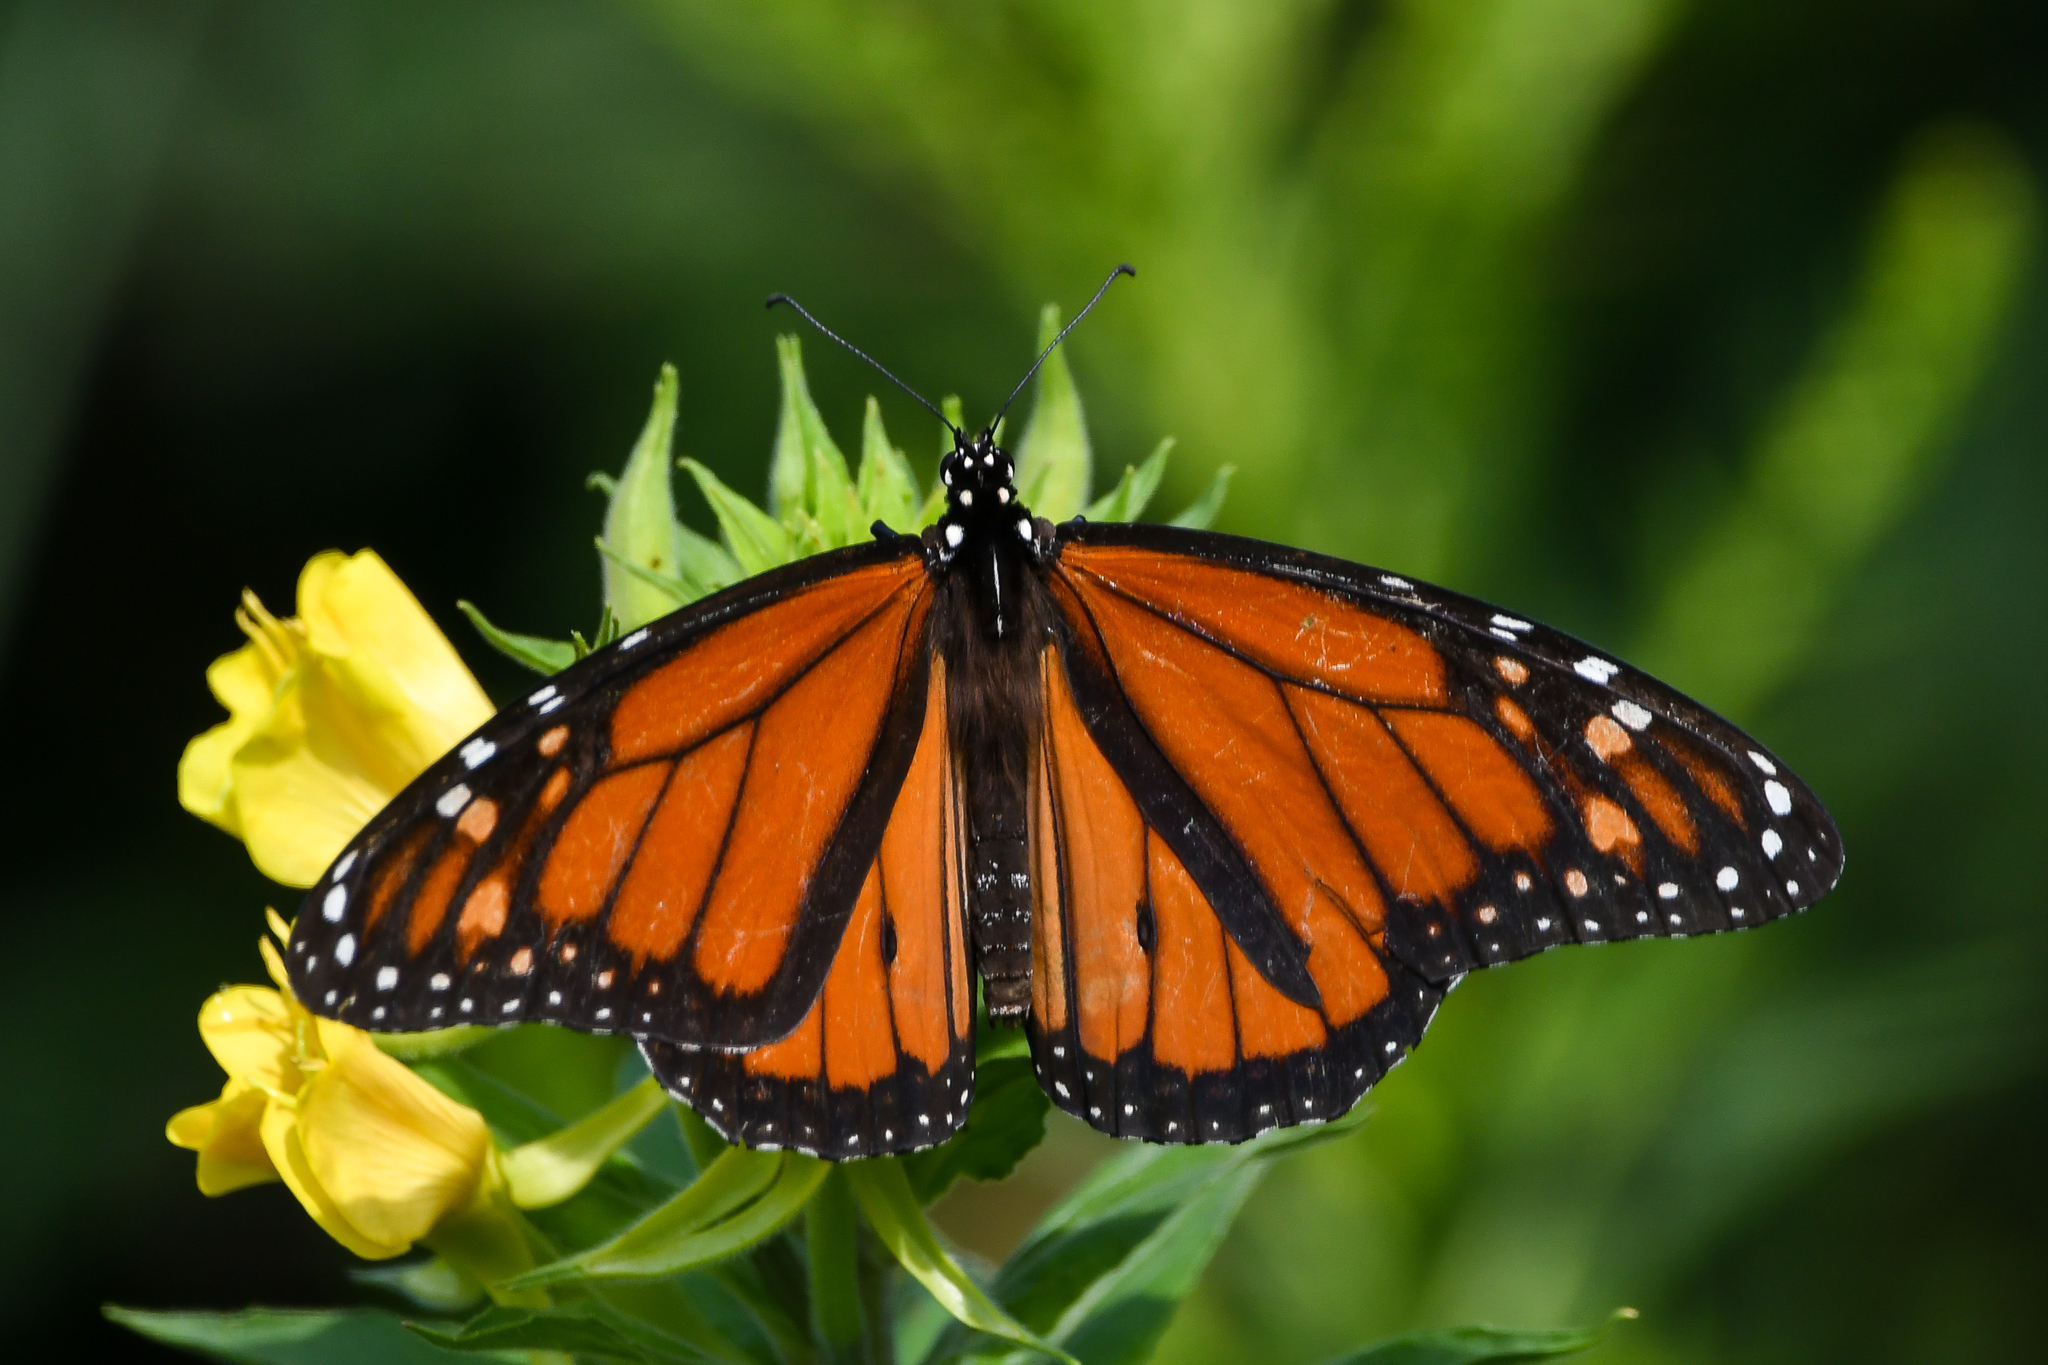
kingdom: Animalia
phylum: Arthropoda
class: Insecta
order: Lepidoptera
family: Nymphalidae
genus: Danaus
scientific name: Danaus plexippus
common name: Monarch
